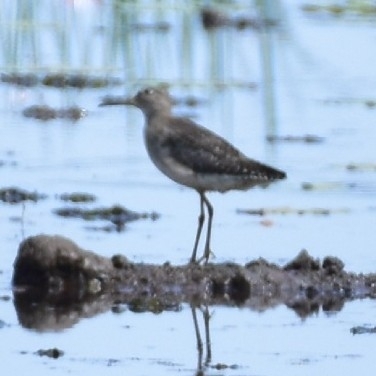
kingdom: Animalia
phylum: Chordata
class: Aves
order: Charadriiformes
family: Scolopacidae
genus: Tringa
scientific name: Tringa glareola
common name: Wood sandpiper
